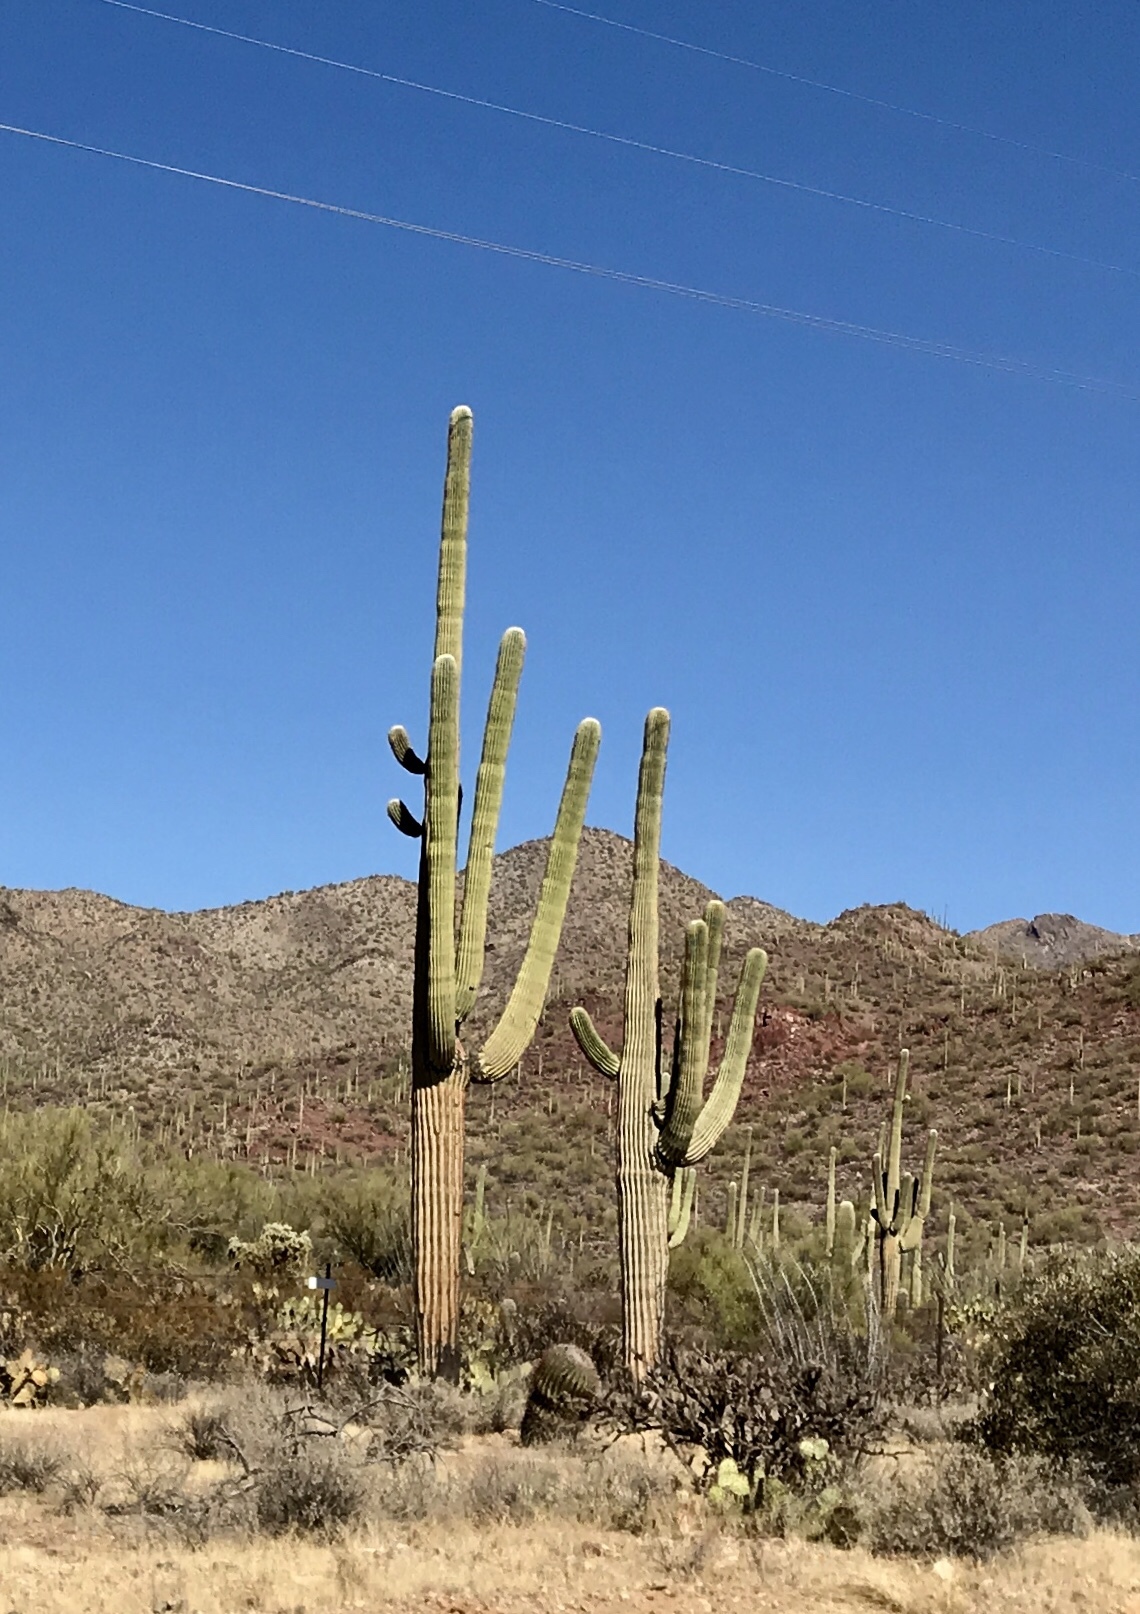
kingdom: Plantae
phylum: Tracheophyta
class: Magnoliopsida
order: Caryophyllales
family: Cactaceae
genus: Carnegiea
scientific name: Carnegiea gigantea
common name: Saguaro
